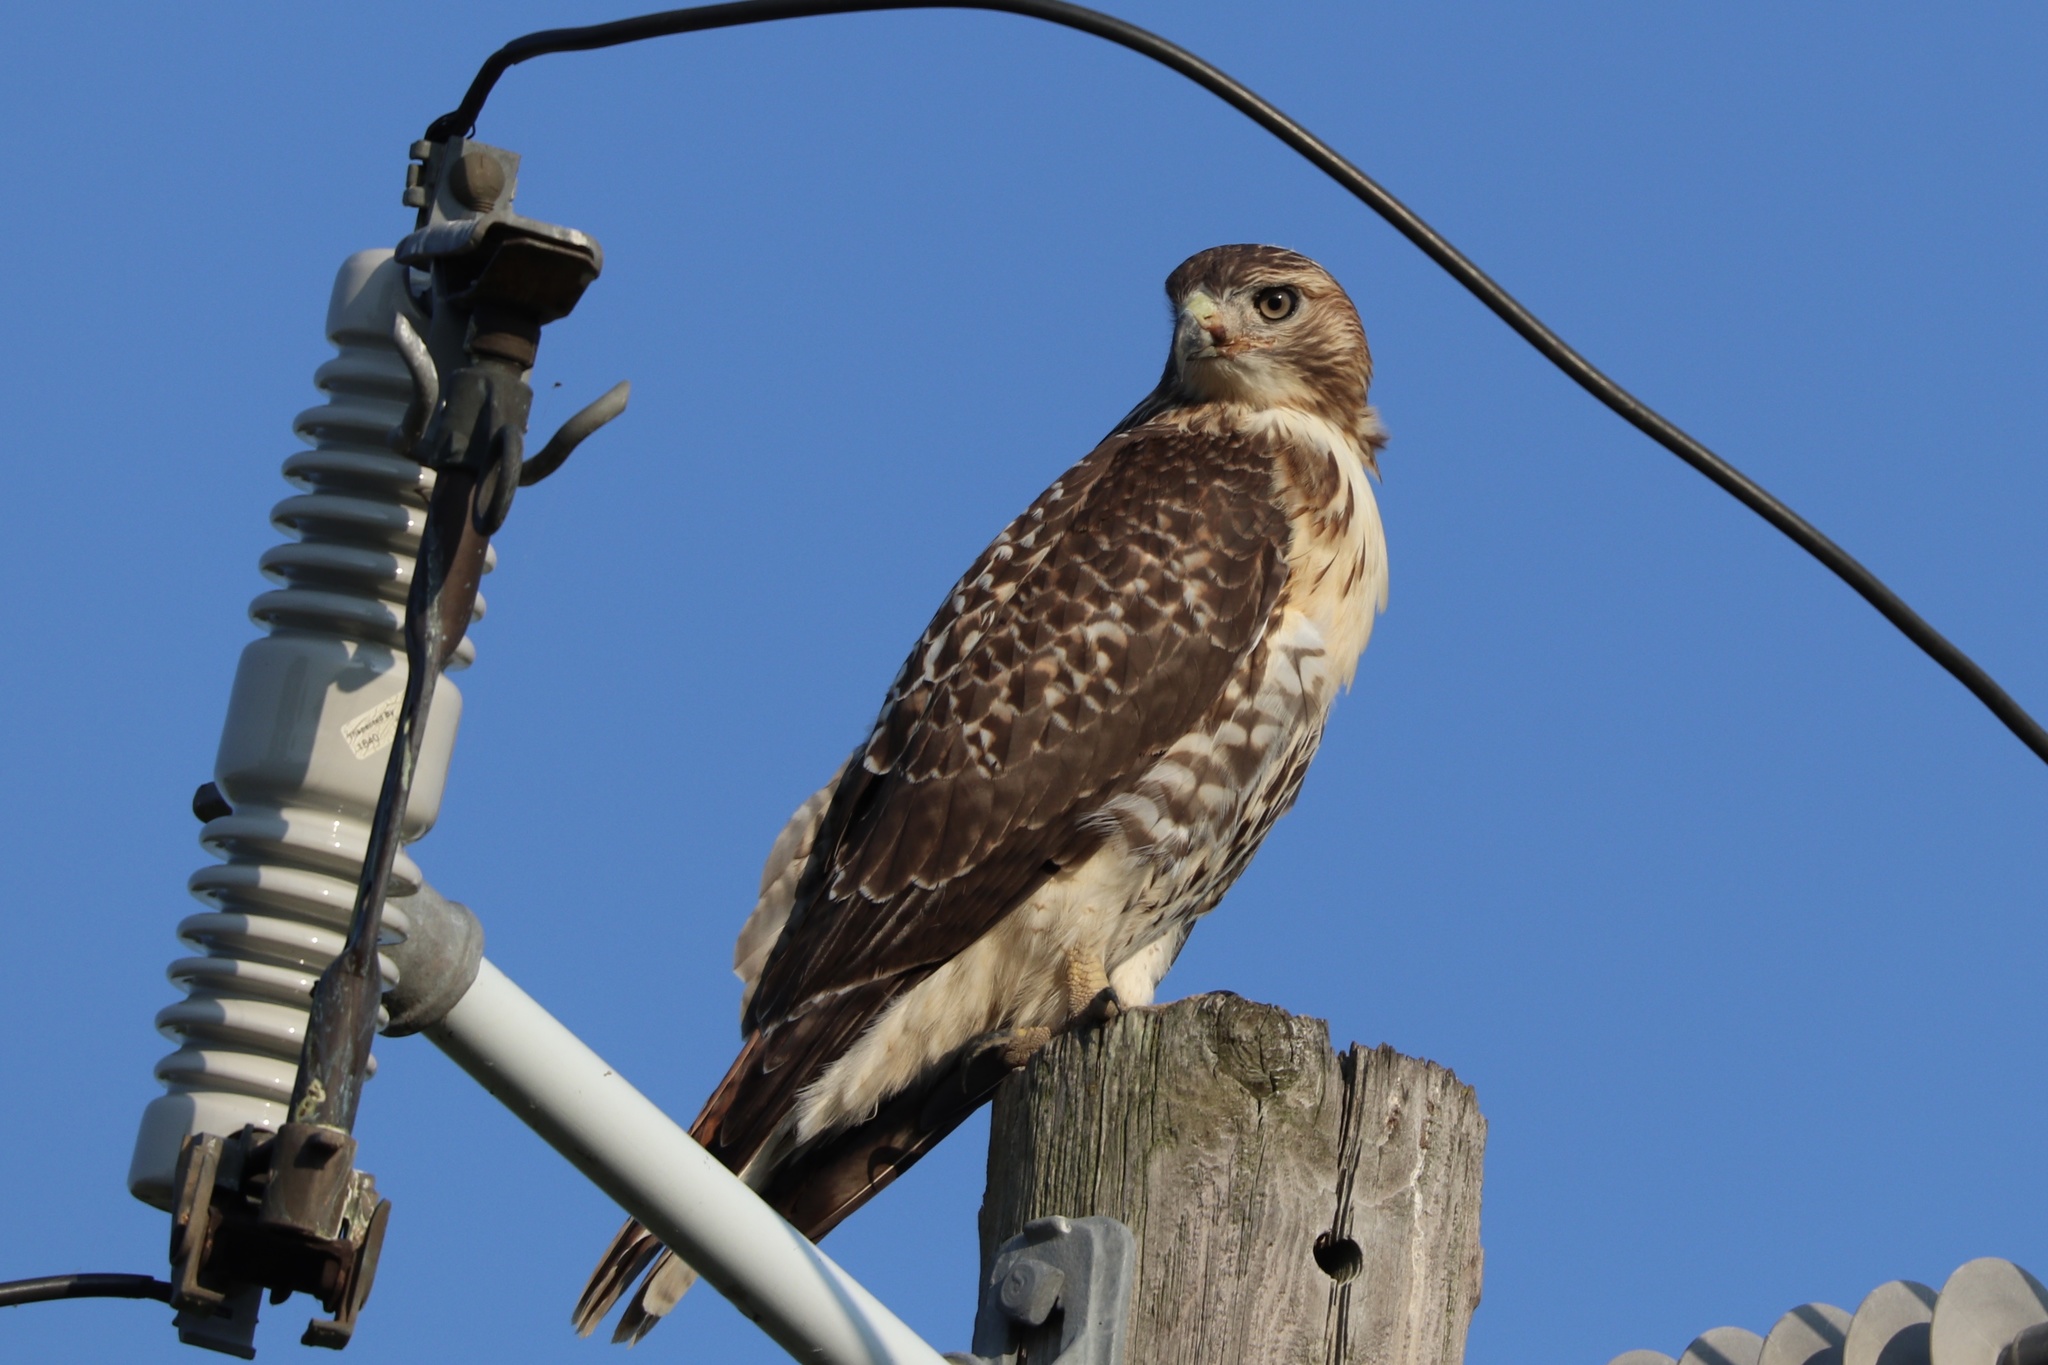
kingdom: Animalia
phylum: Chordata
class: Aves
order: Accipitriformes
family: Accipitridae
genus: Buteo
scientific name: Buteo jamaicensis
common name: Red-tailed hawk
